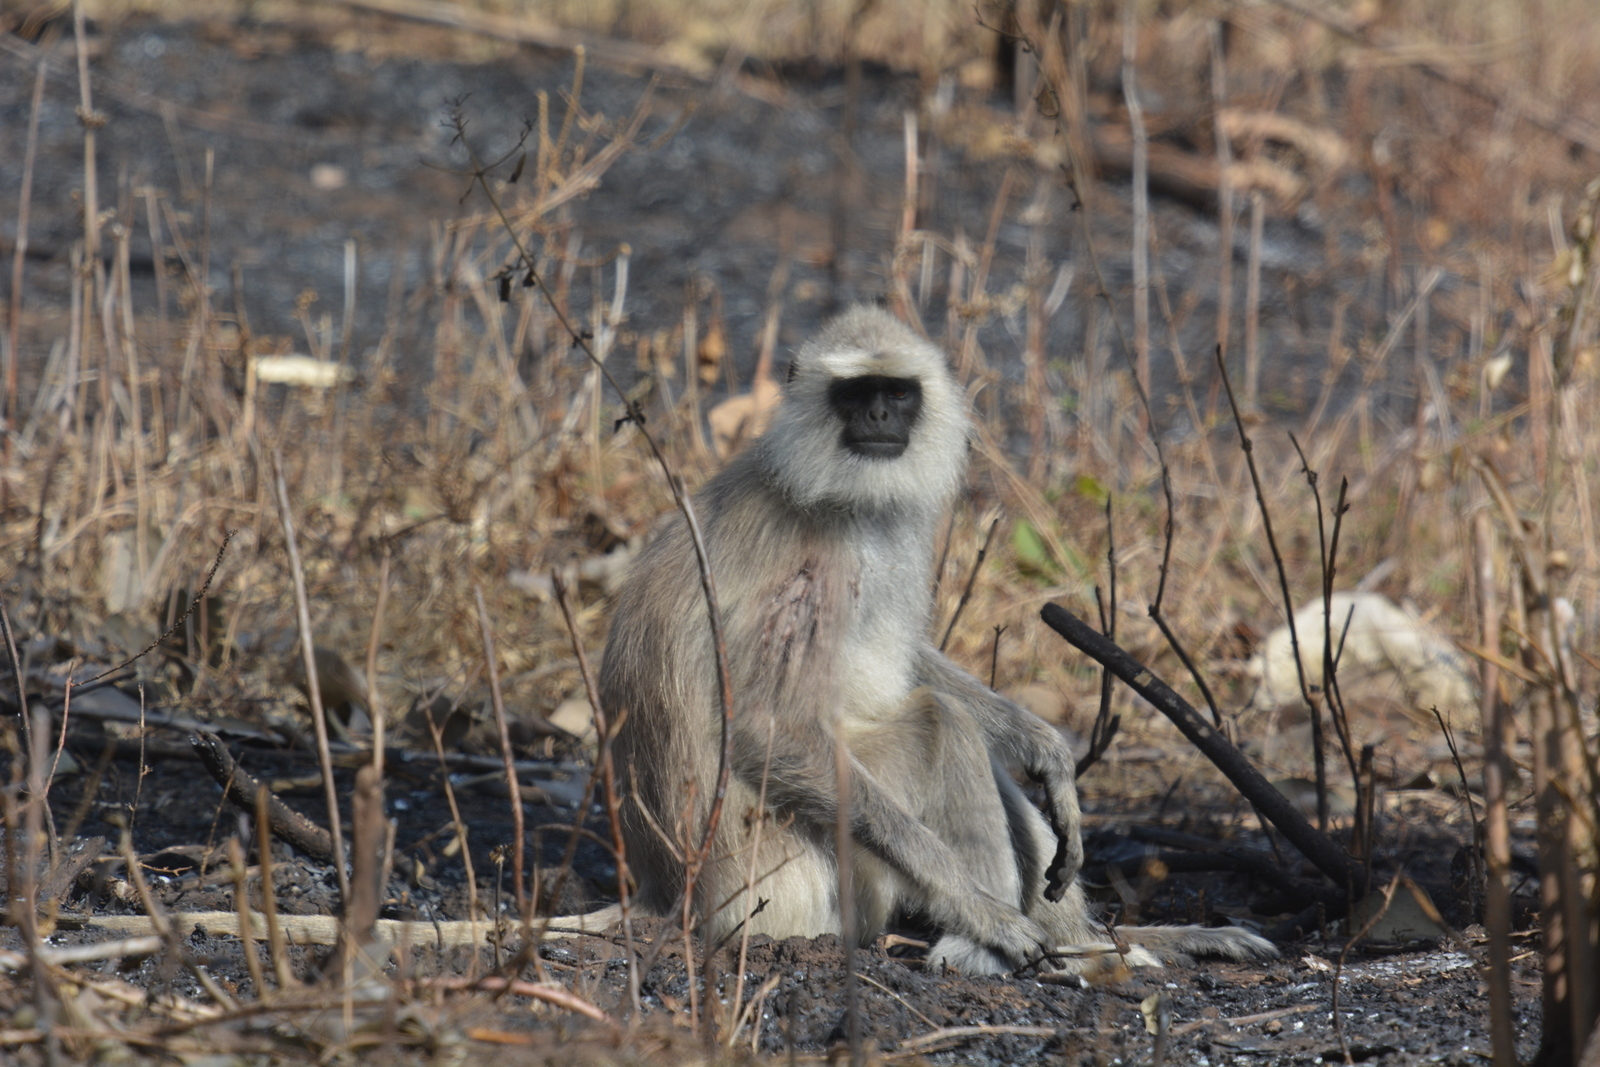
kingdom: Animalia
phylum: Chordata
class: Mammalia
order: Primates
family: Cercopithecidae
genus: Semnopithecus
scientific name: Semnopithecus priam
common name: Tufted gray langur
